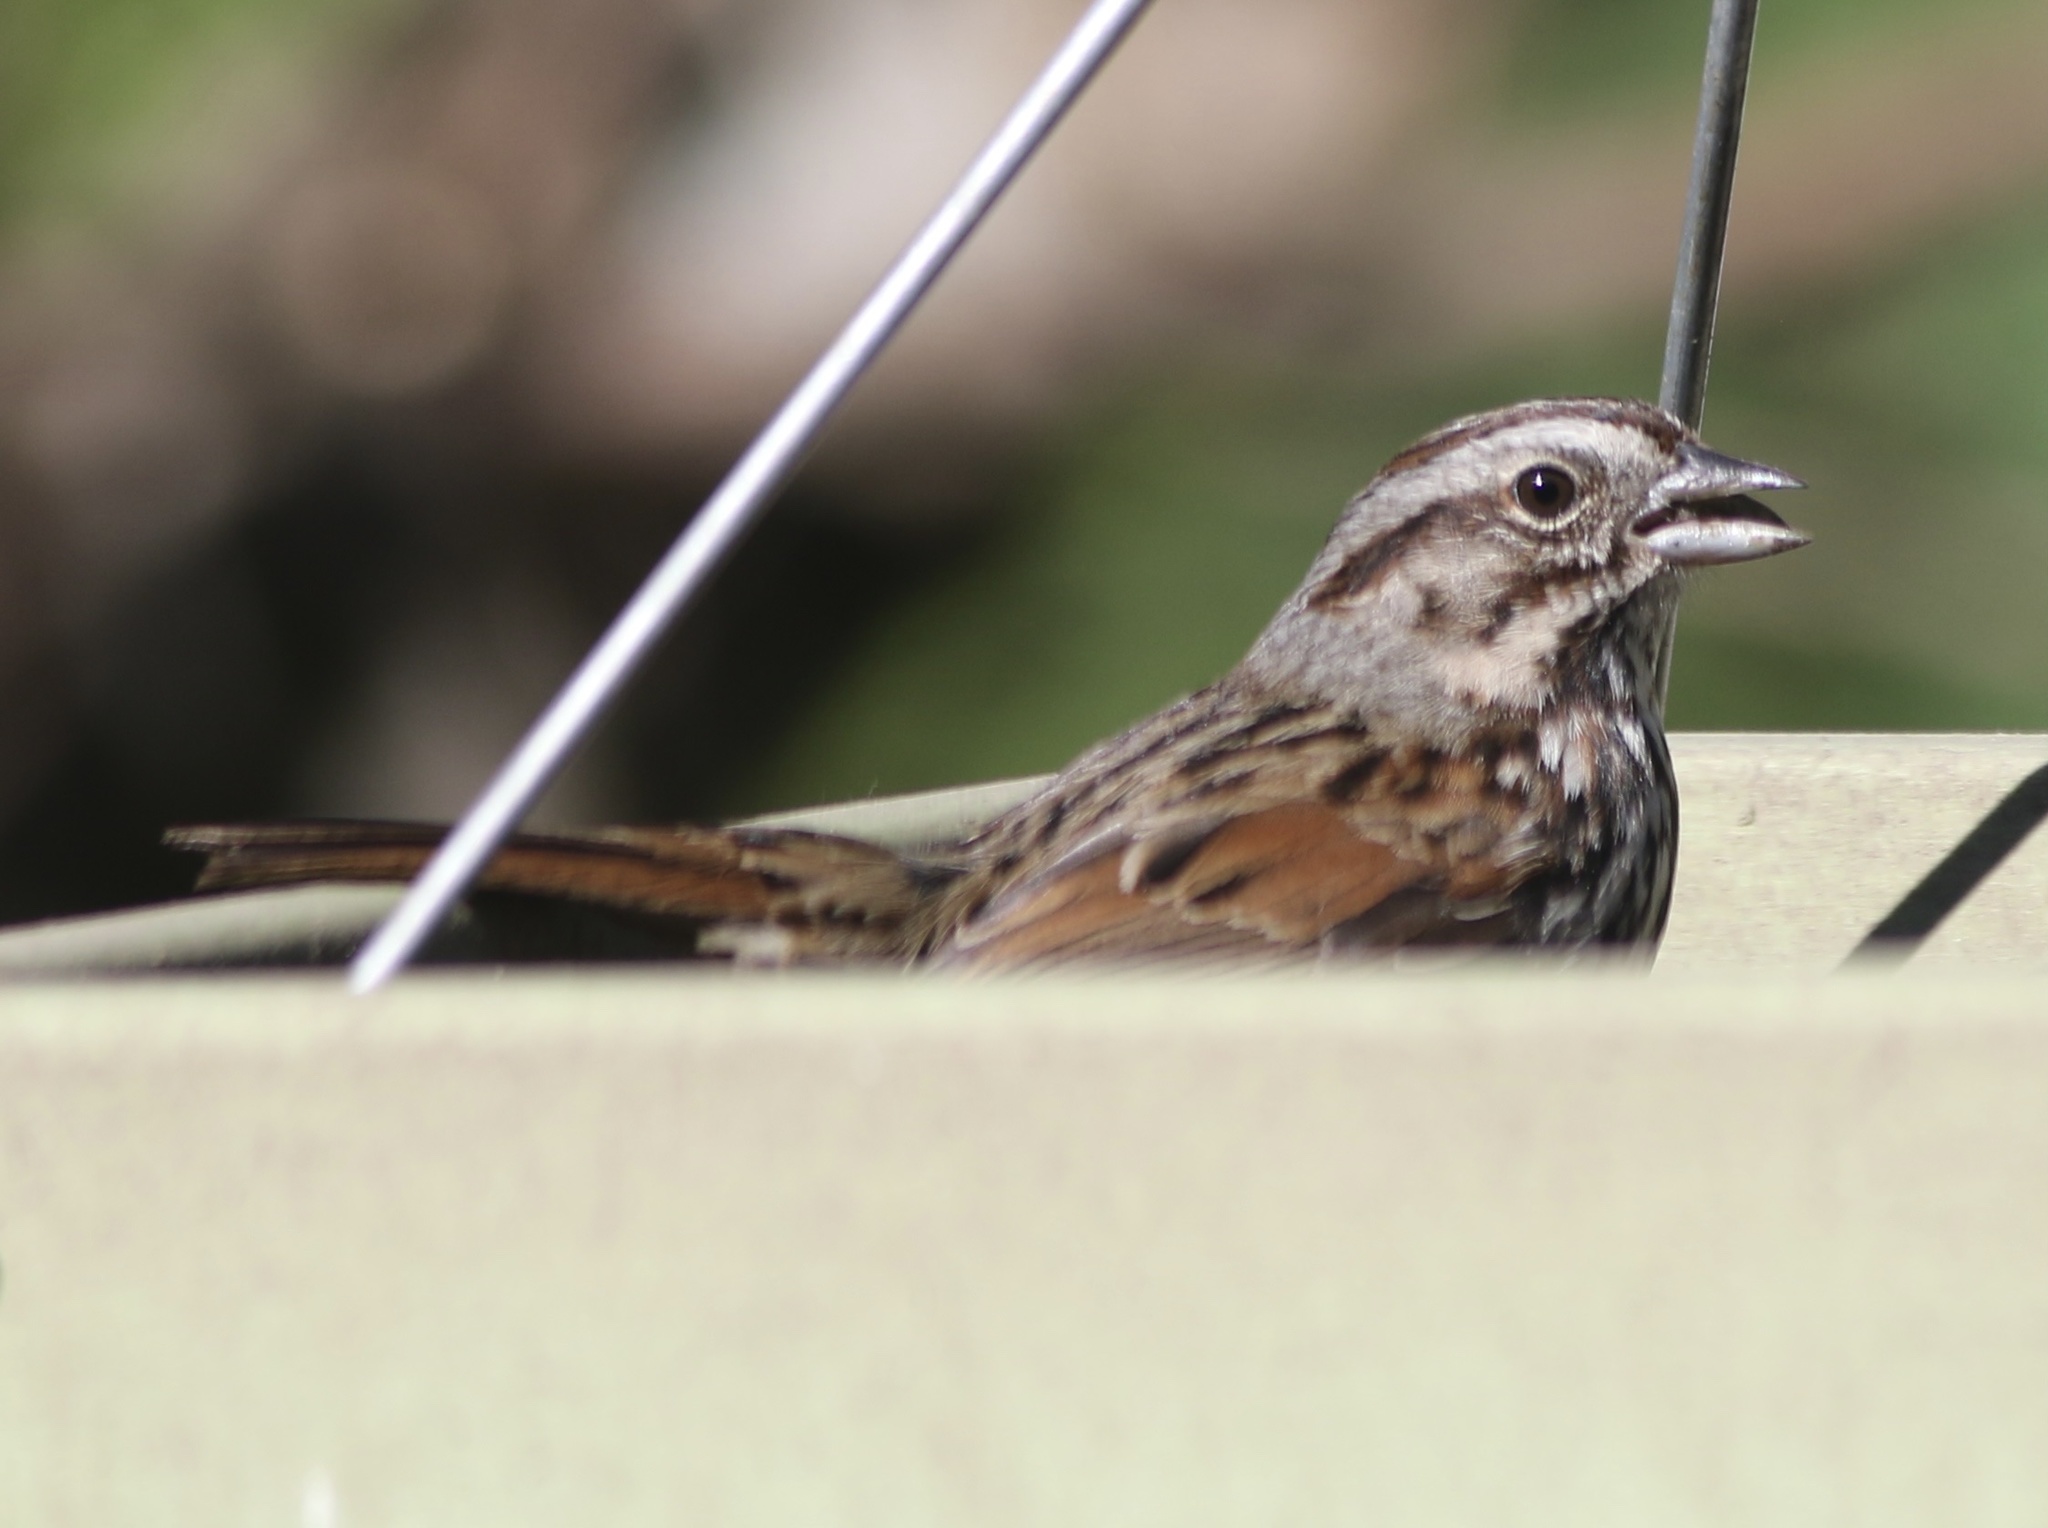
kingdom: Animalia
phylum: Chordata
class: Aves
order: Passeriformes
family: Passerellidae
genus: Melospiza
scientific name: Melospiza melodia
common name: Song sparrow
